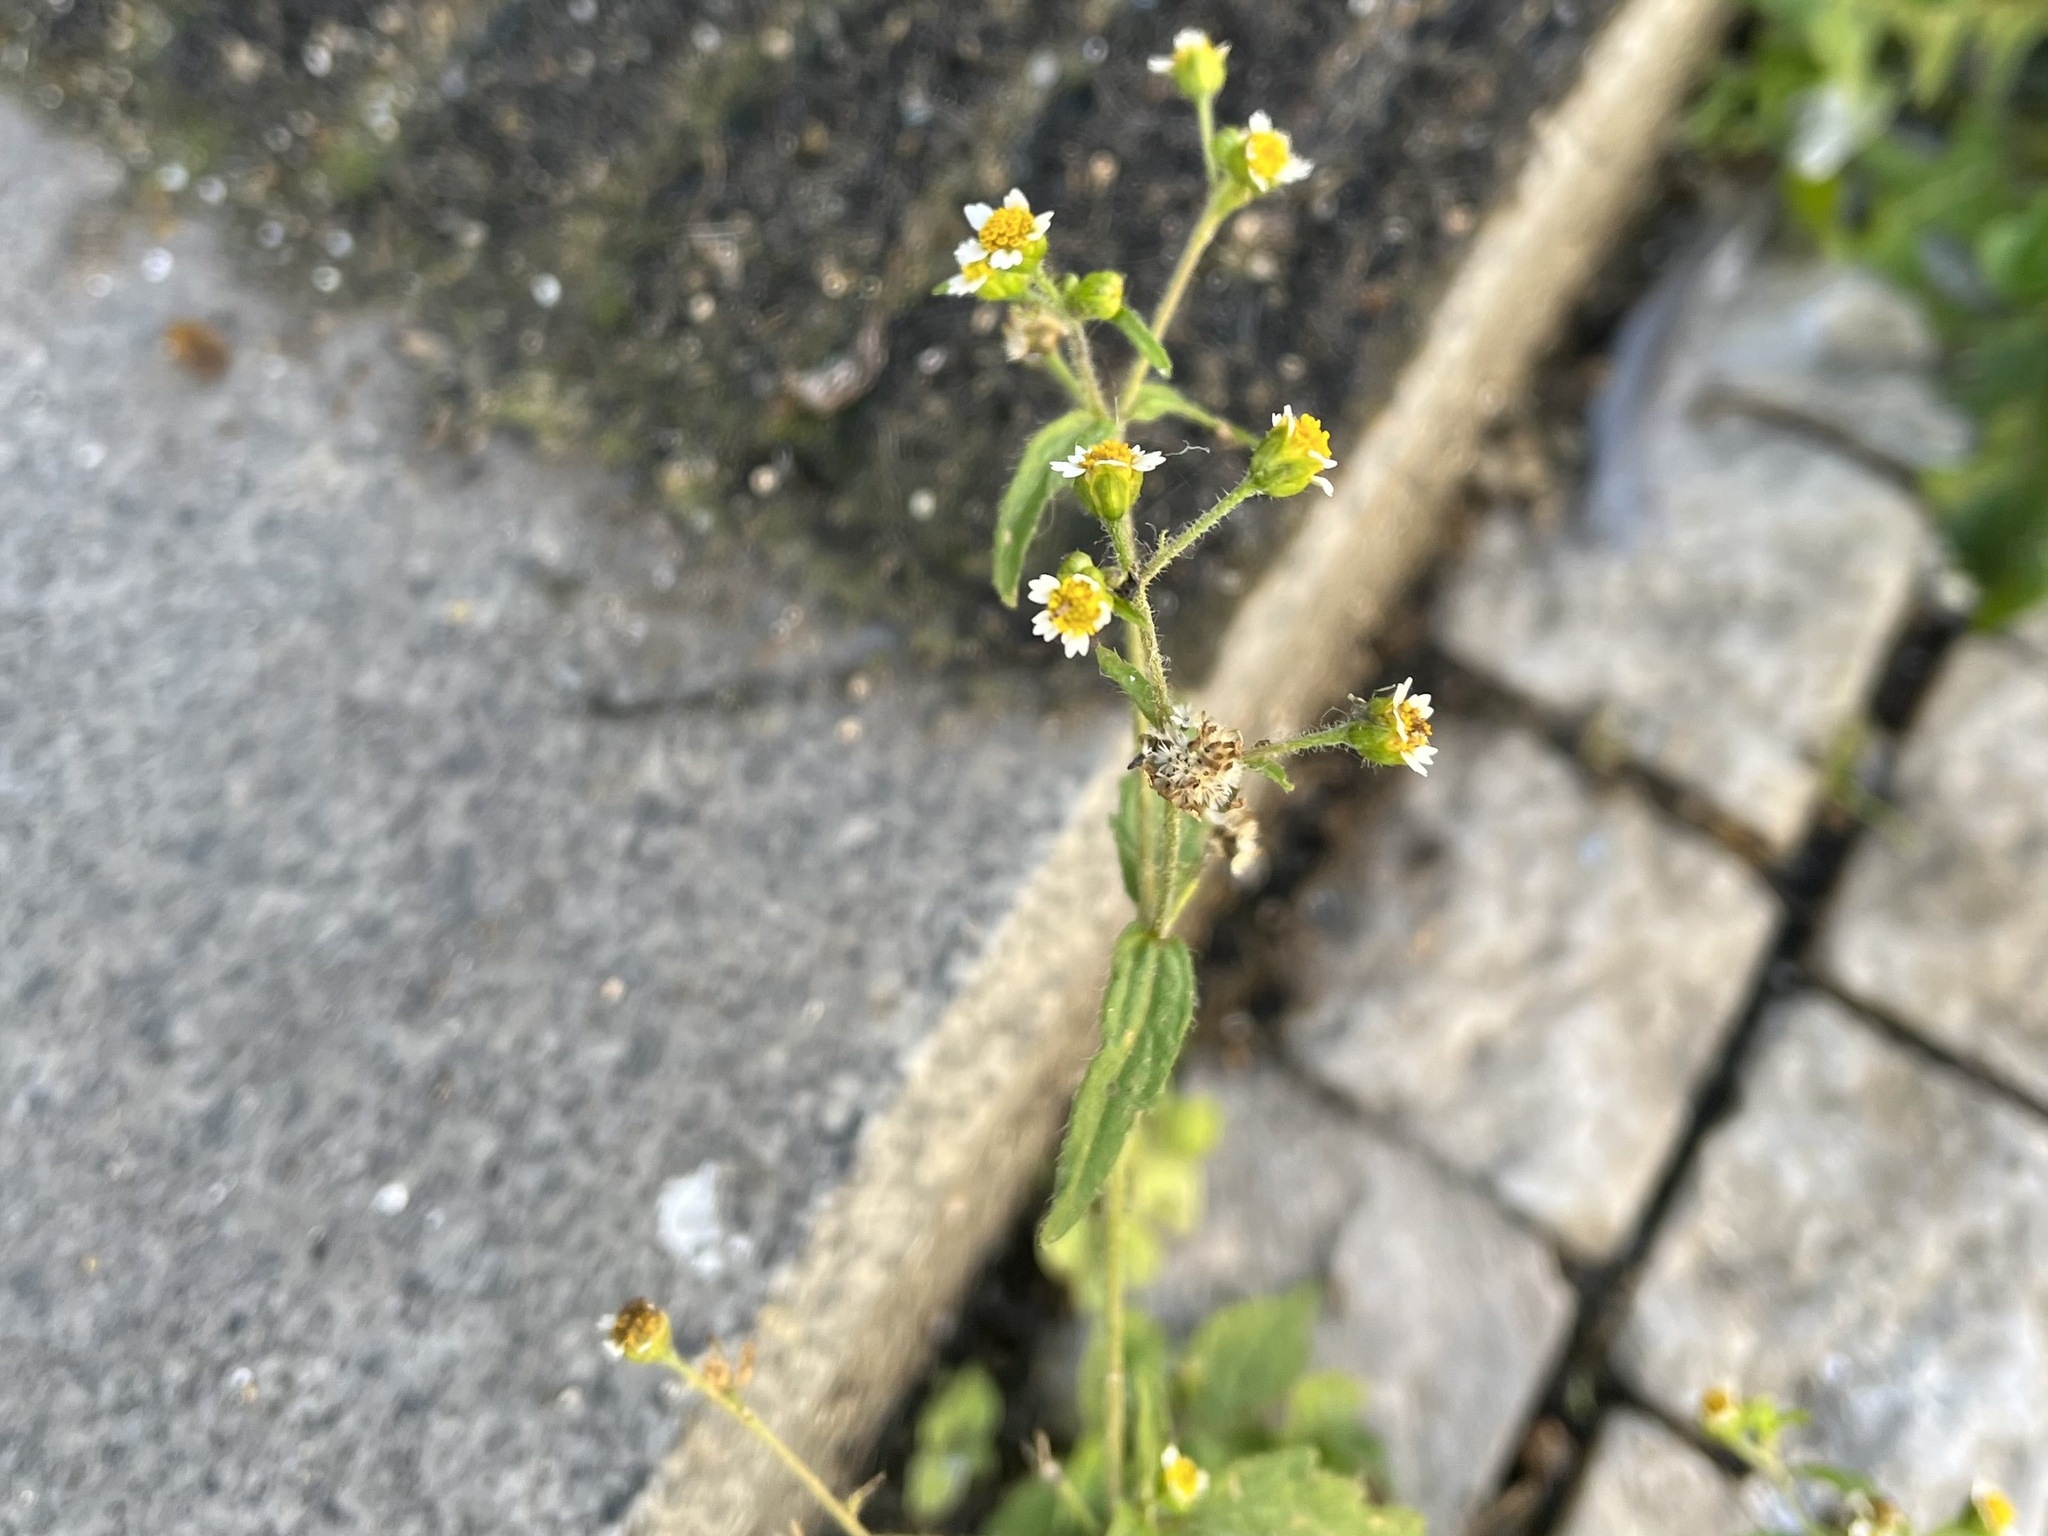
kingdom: Plantae
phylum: Tracheophyta
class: Magnoliopsida
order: Asterales
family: Asteraceae
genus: Galinsoga
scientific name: Galinsoga quadriradiata
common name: Shaggy soldier
